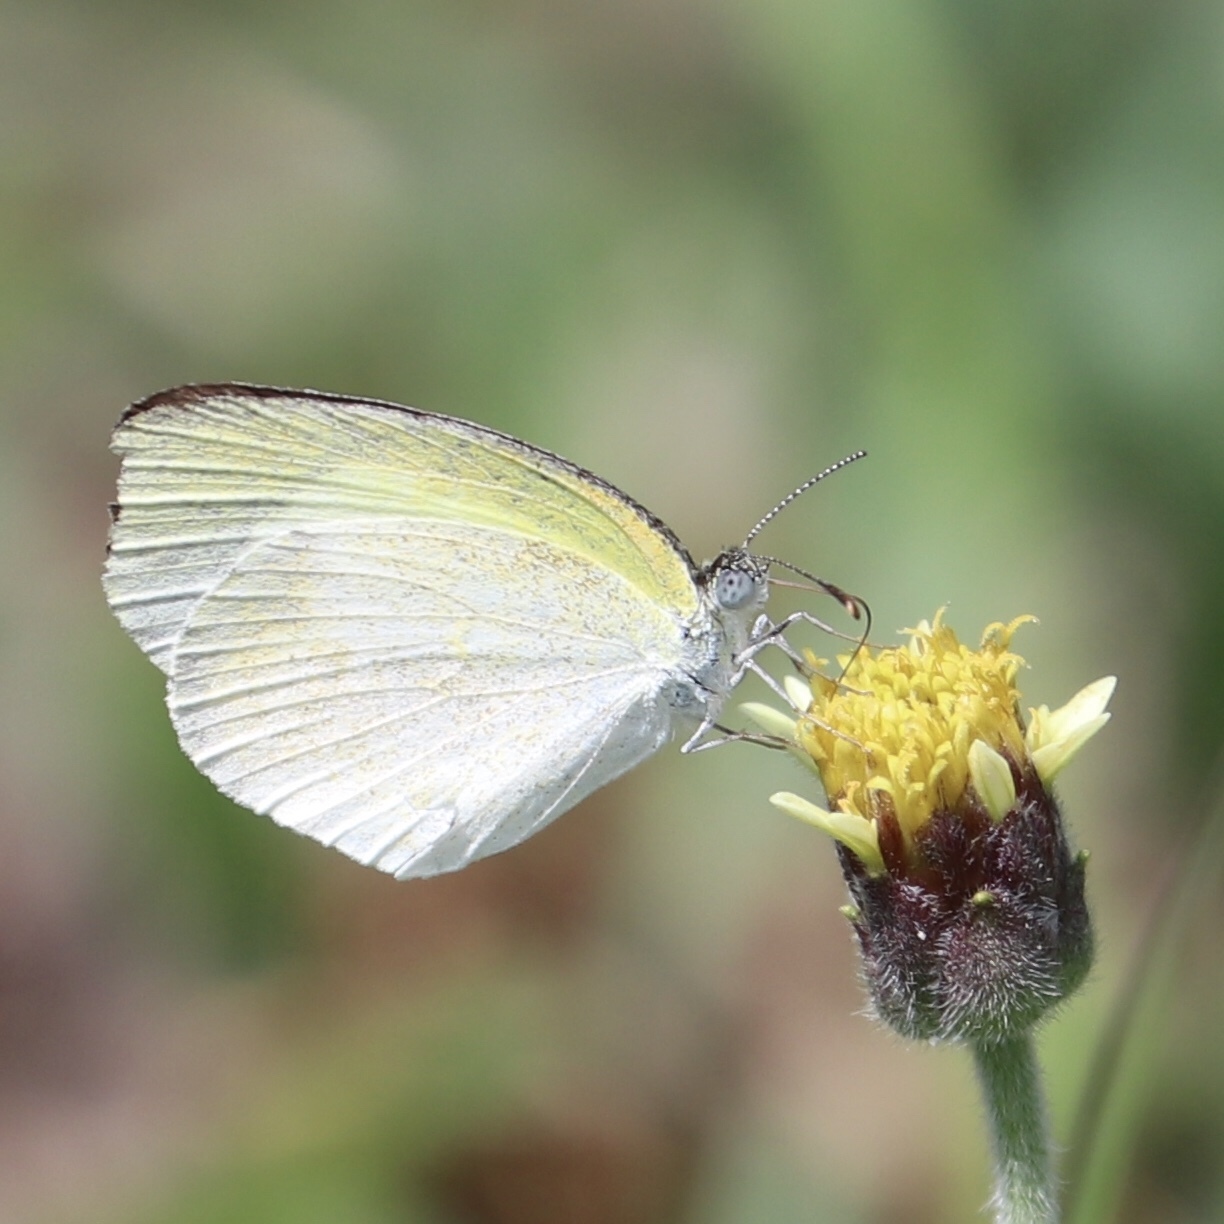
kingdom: Animalia
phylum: Arthropoda
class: Insecta
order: Lepidoptera
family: Pieridae
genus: Eurema
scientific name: Eurema daira
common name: Barred sulphur
